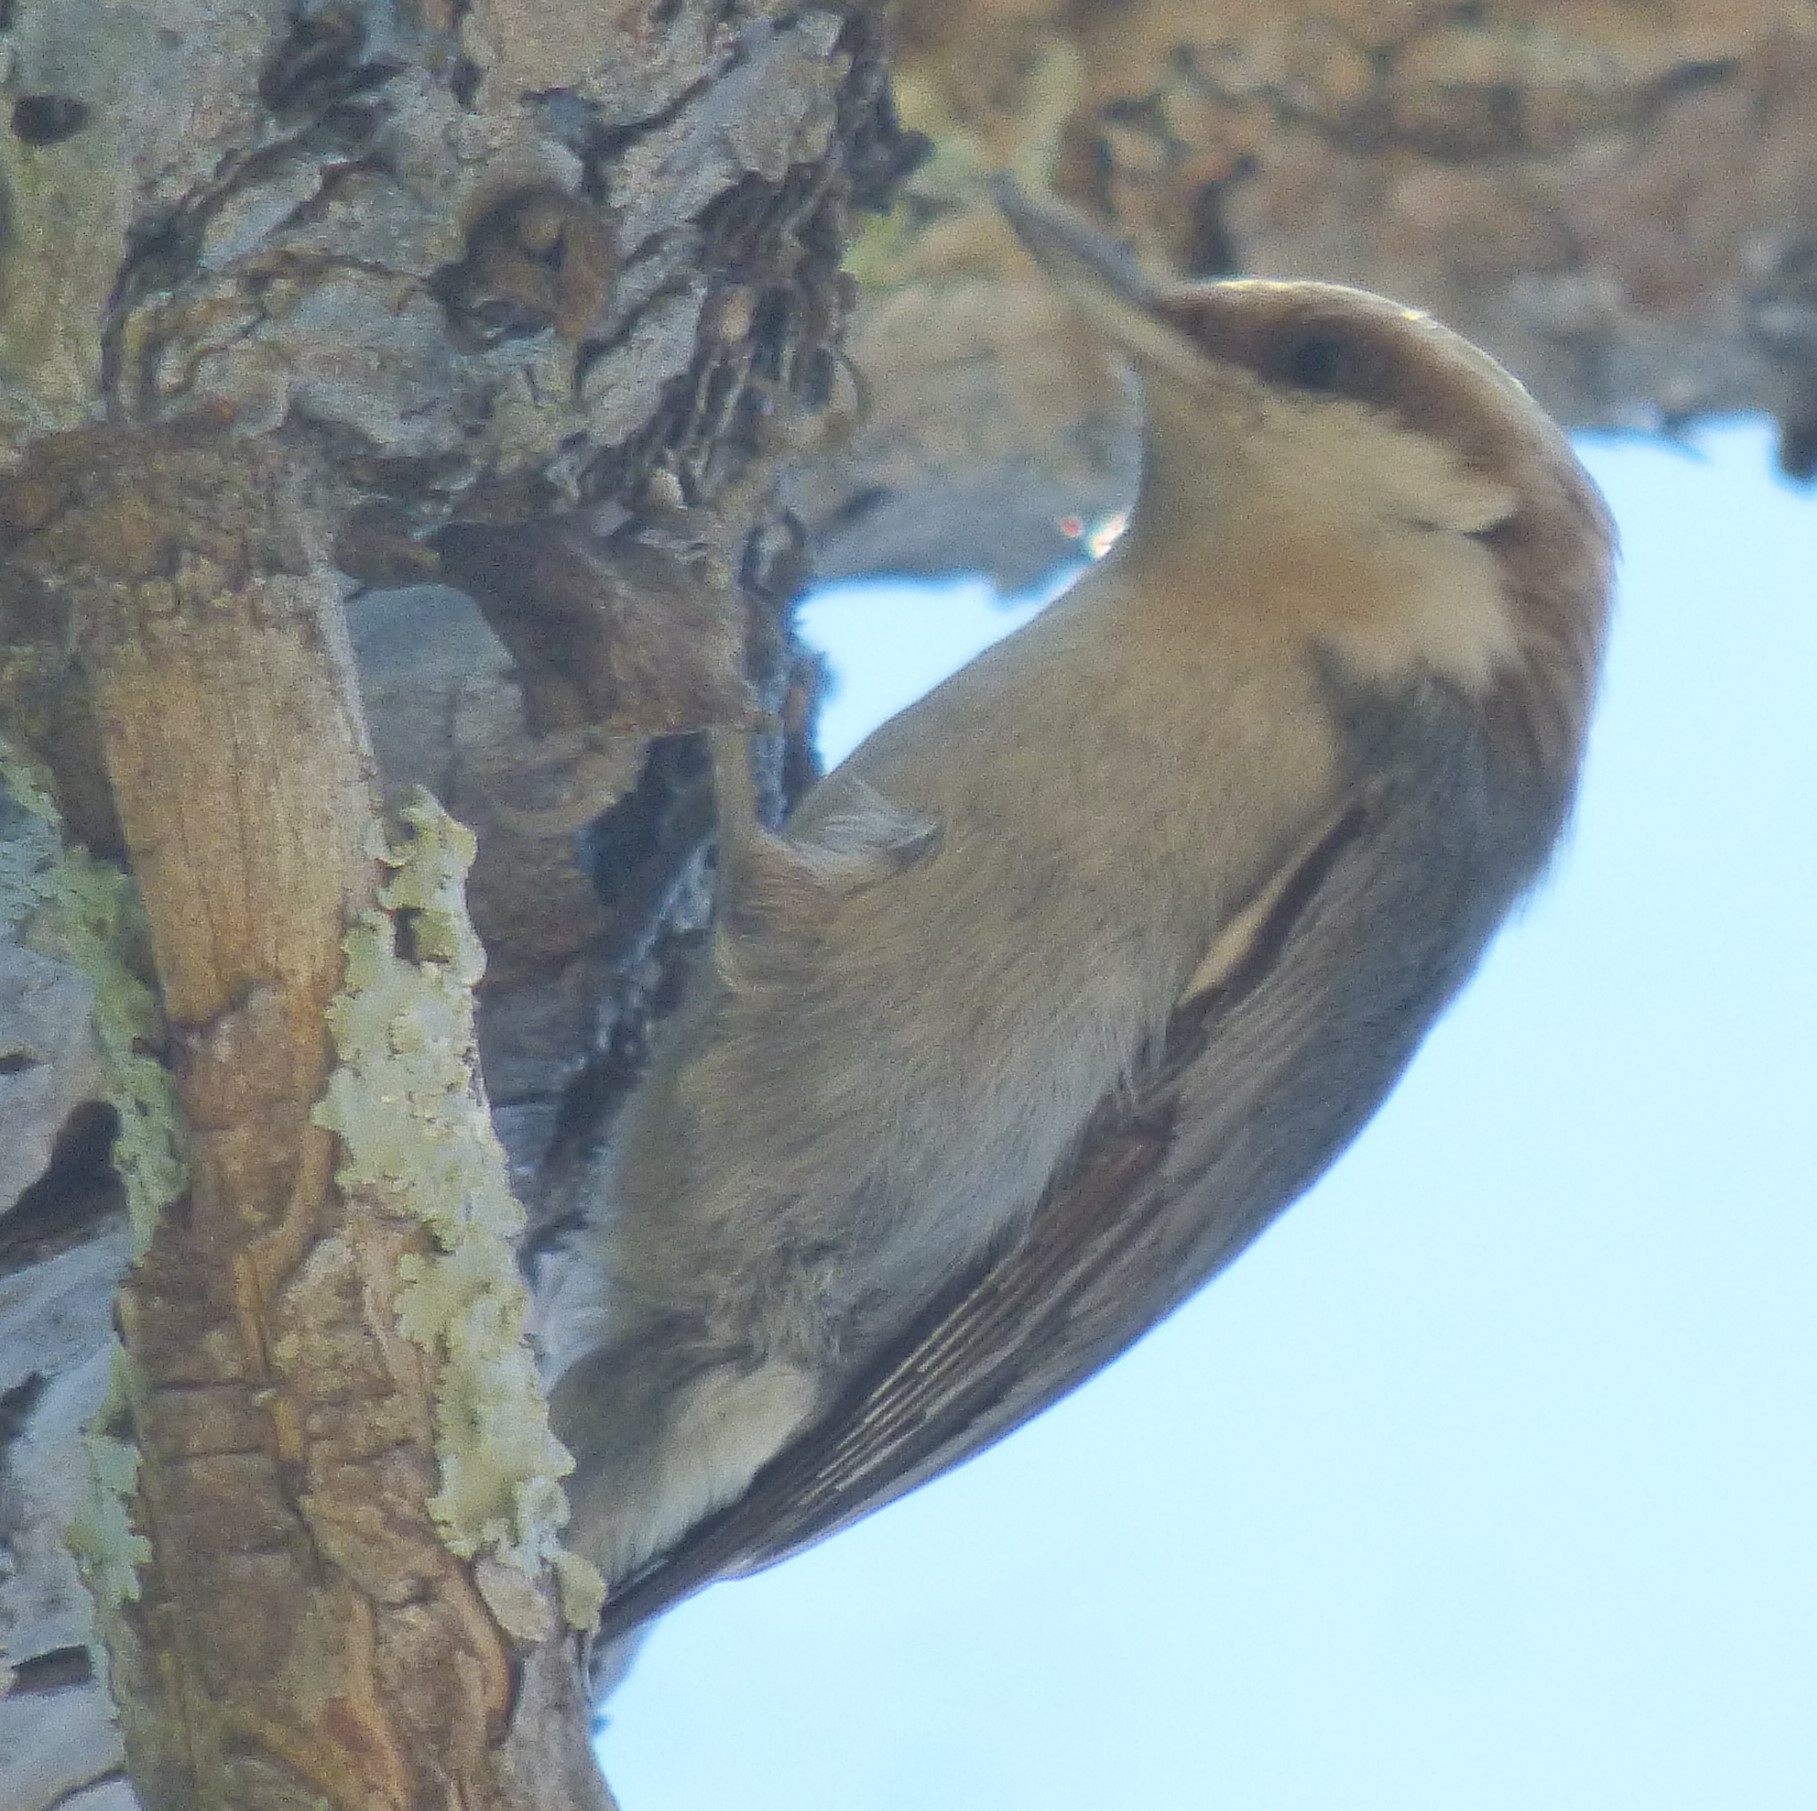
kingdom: Animalia
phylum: Chordata
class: Aves
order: Passeriformes
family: Sittidae
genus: Sitta
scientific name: Sitta pusilla
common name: Brown-headed nuthatch
